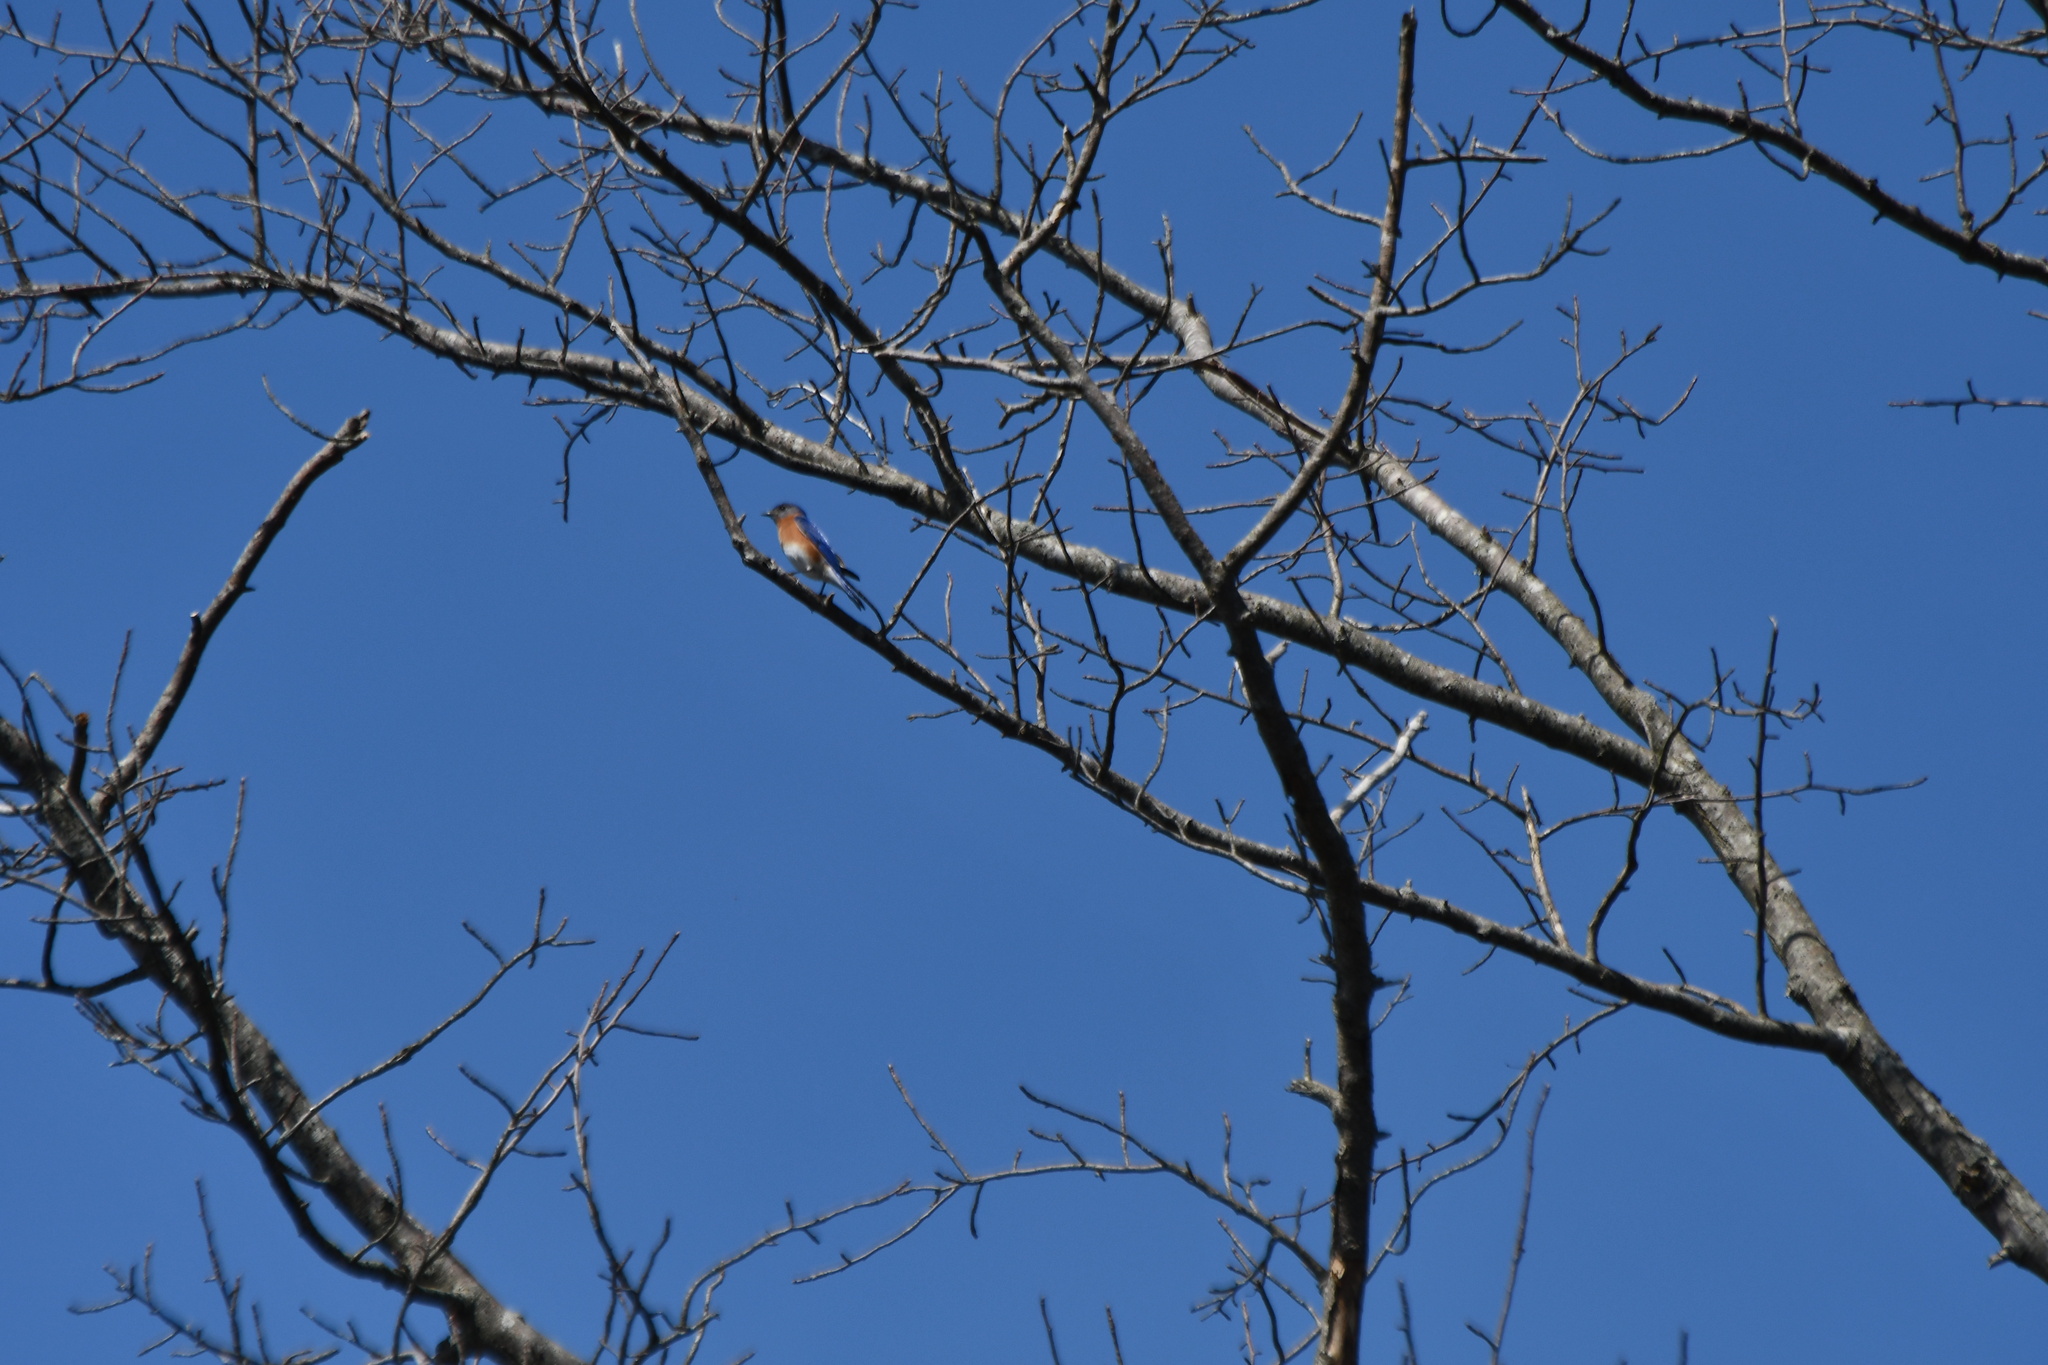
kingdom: Animalia
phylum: Chordata
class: Aves
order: Passeriformes
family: Turdidae
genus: Sialia
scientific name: Sialia sialis
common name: Eastern bluebird
